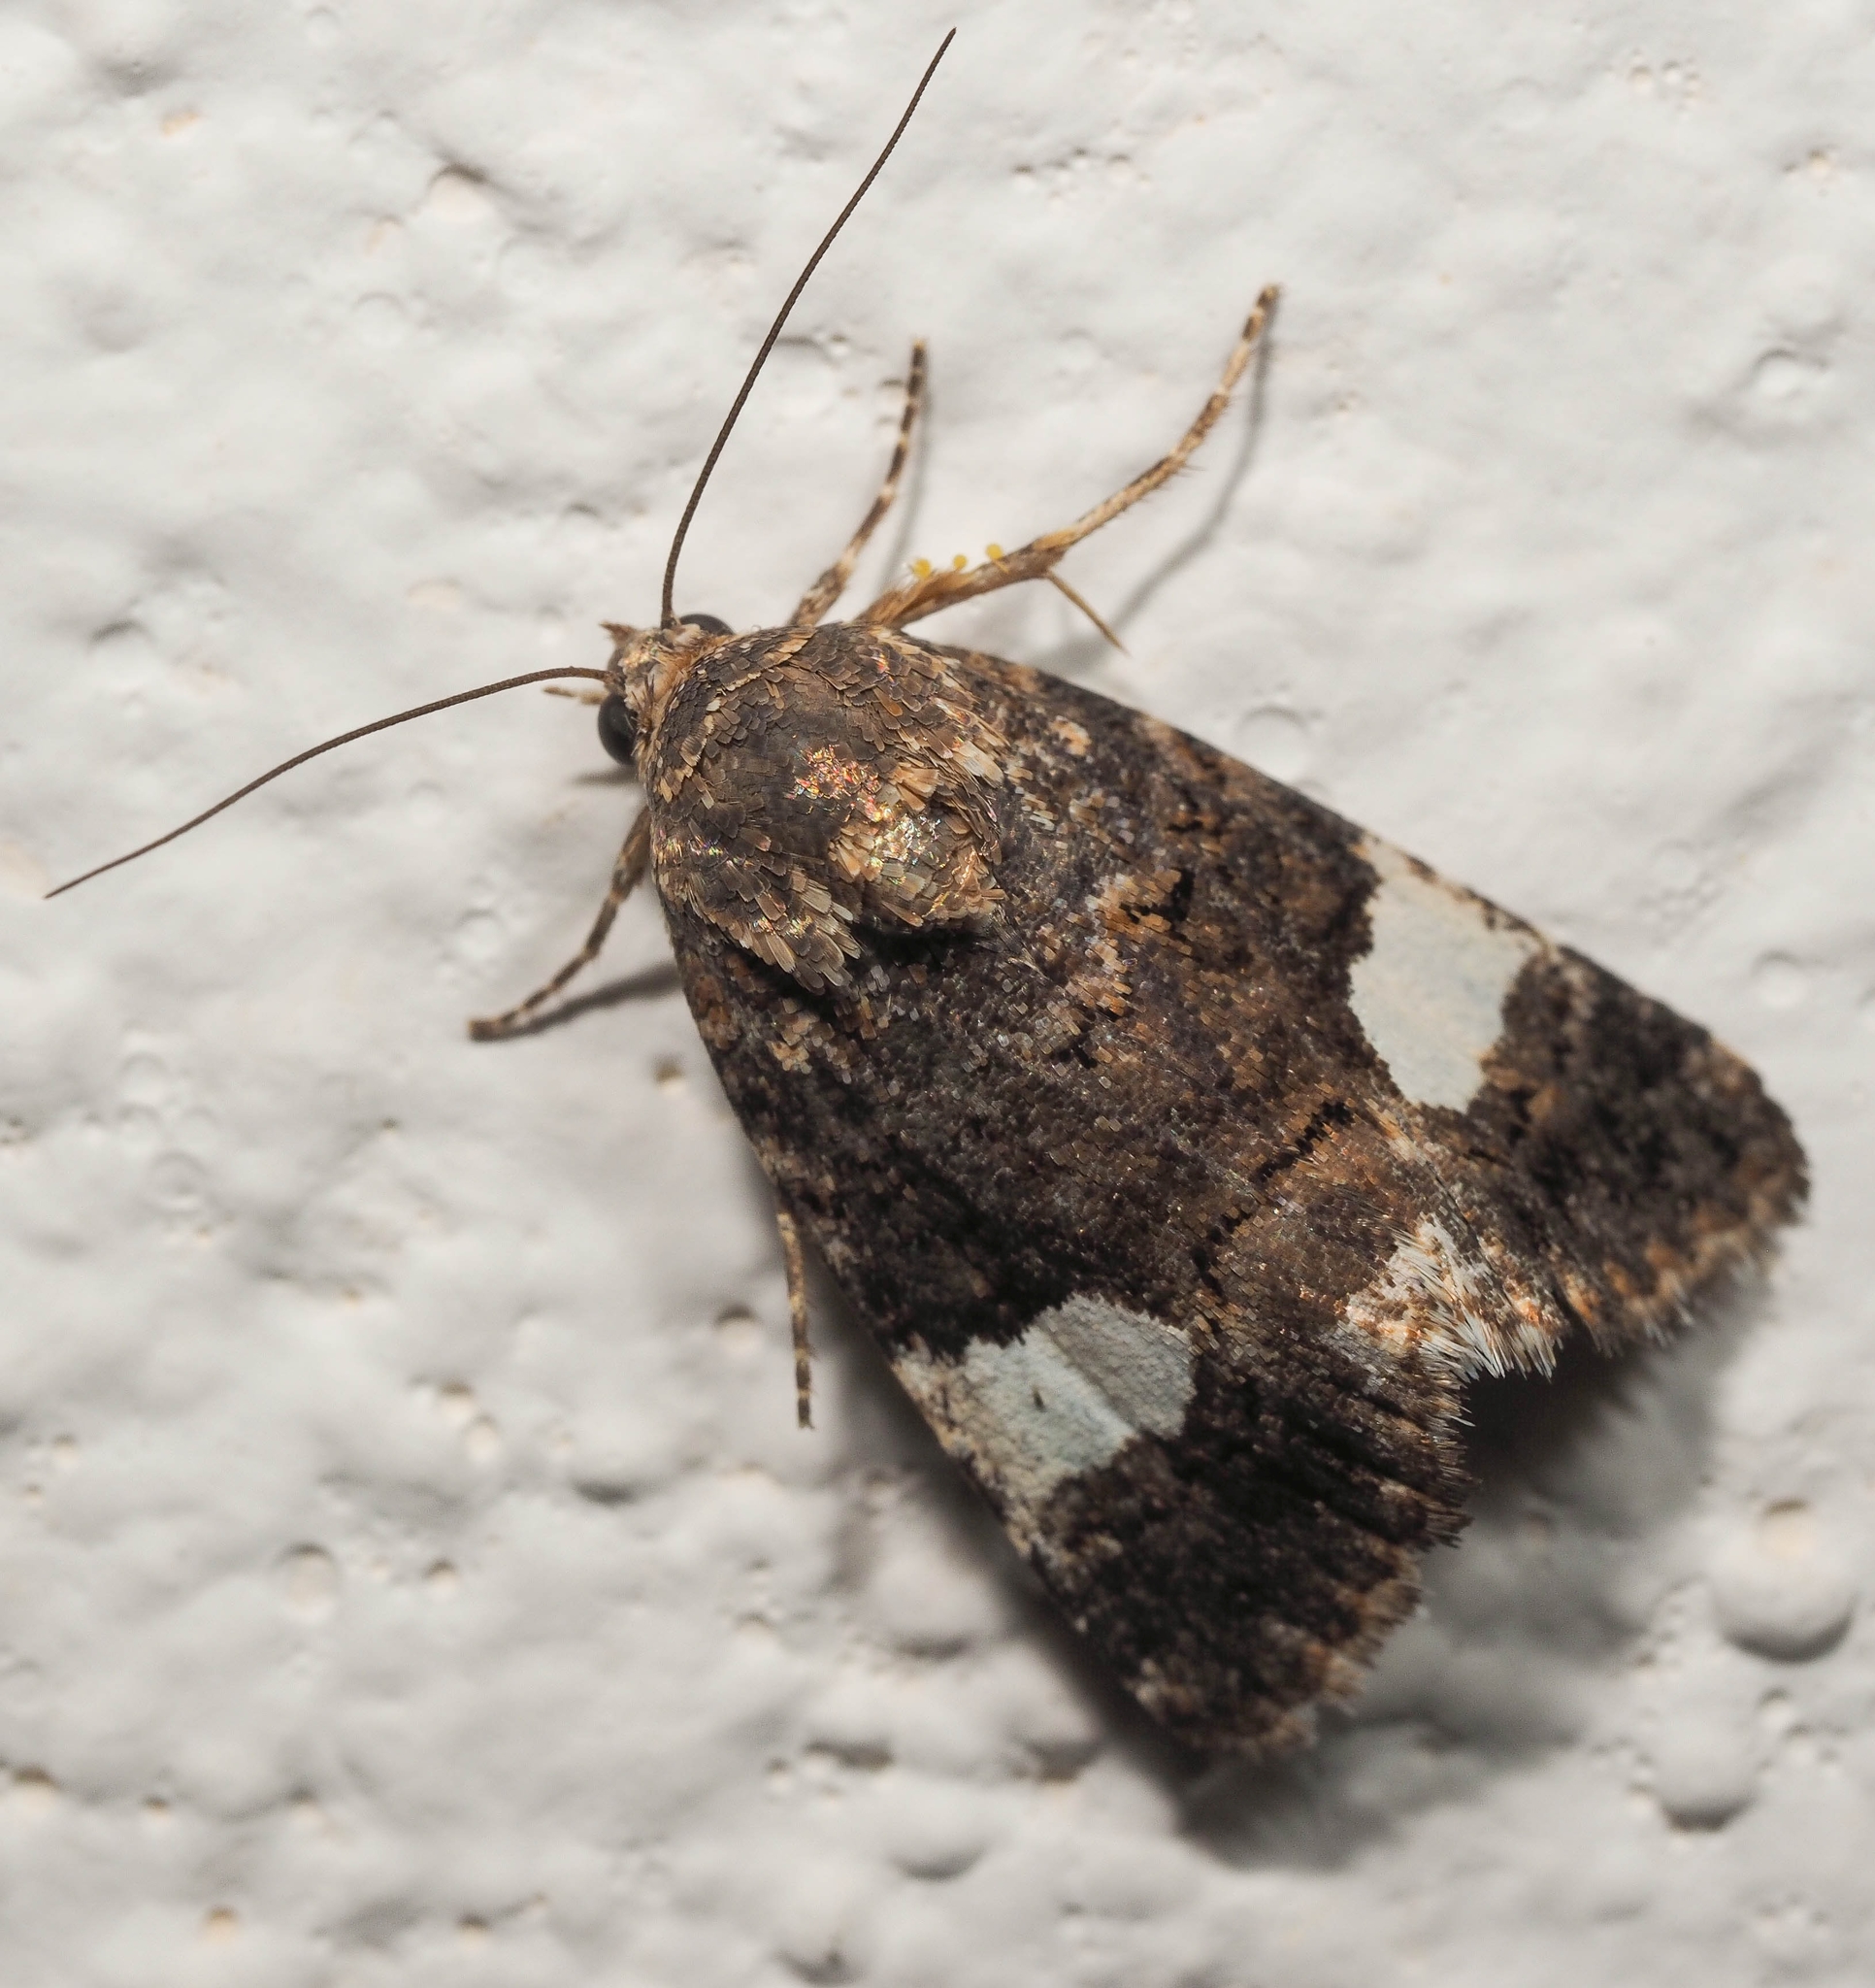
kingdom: Animalia
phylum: Arthropoda
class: Insecta
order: Lepidoptera
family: Erebidae
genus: Tyta
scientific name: Tyta luctuosa
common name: Four-spotted
